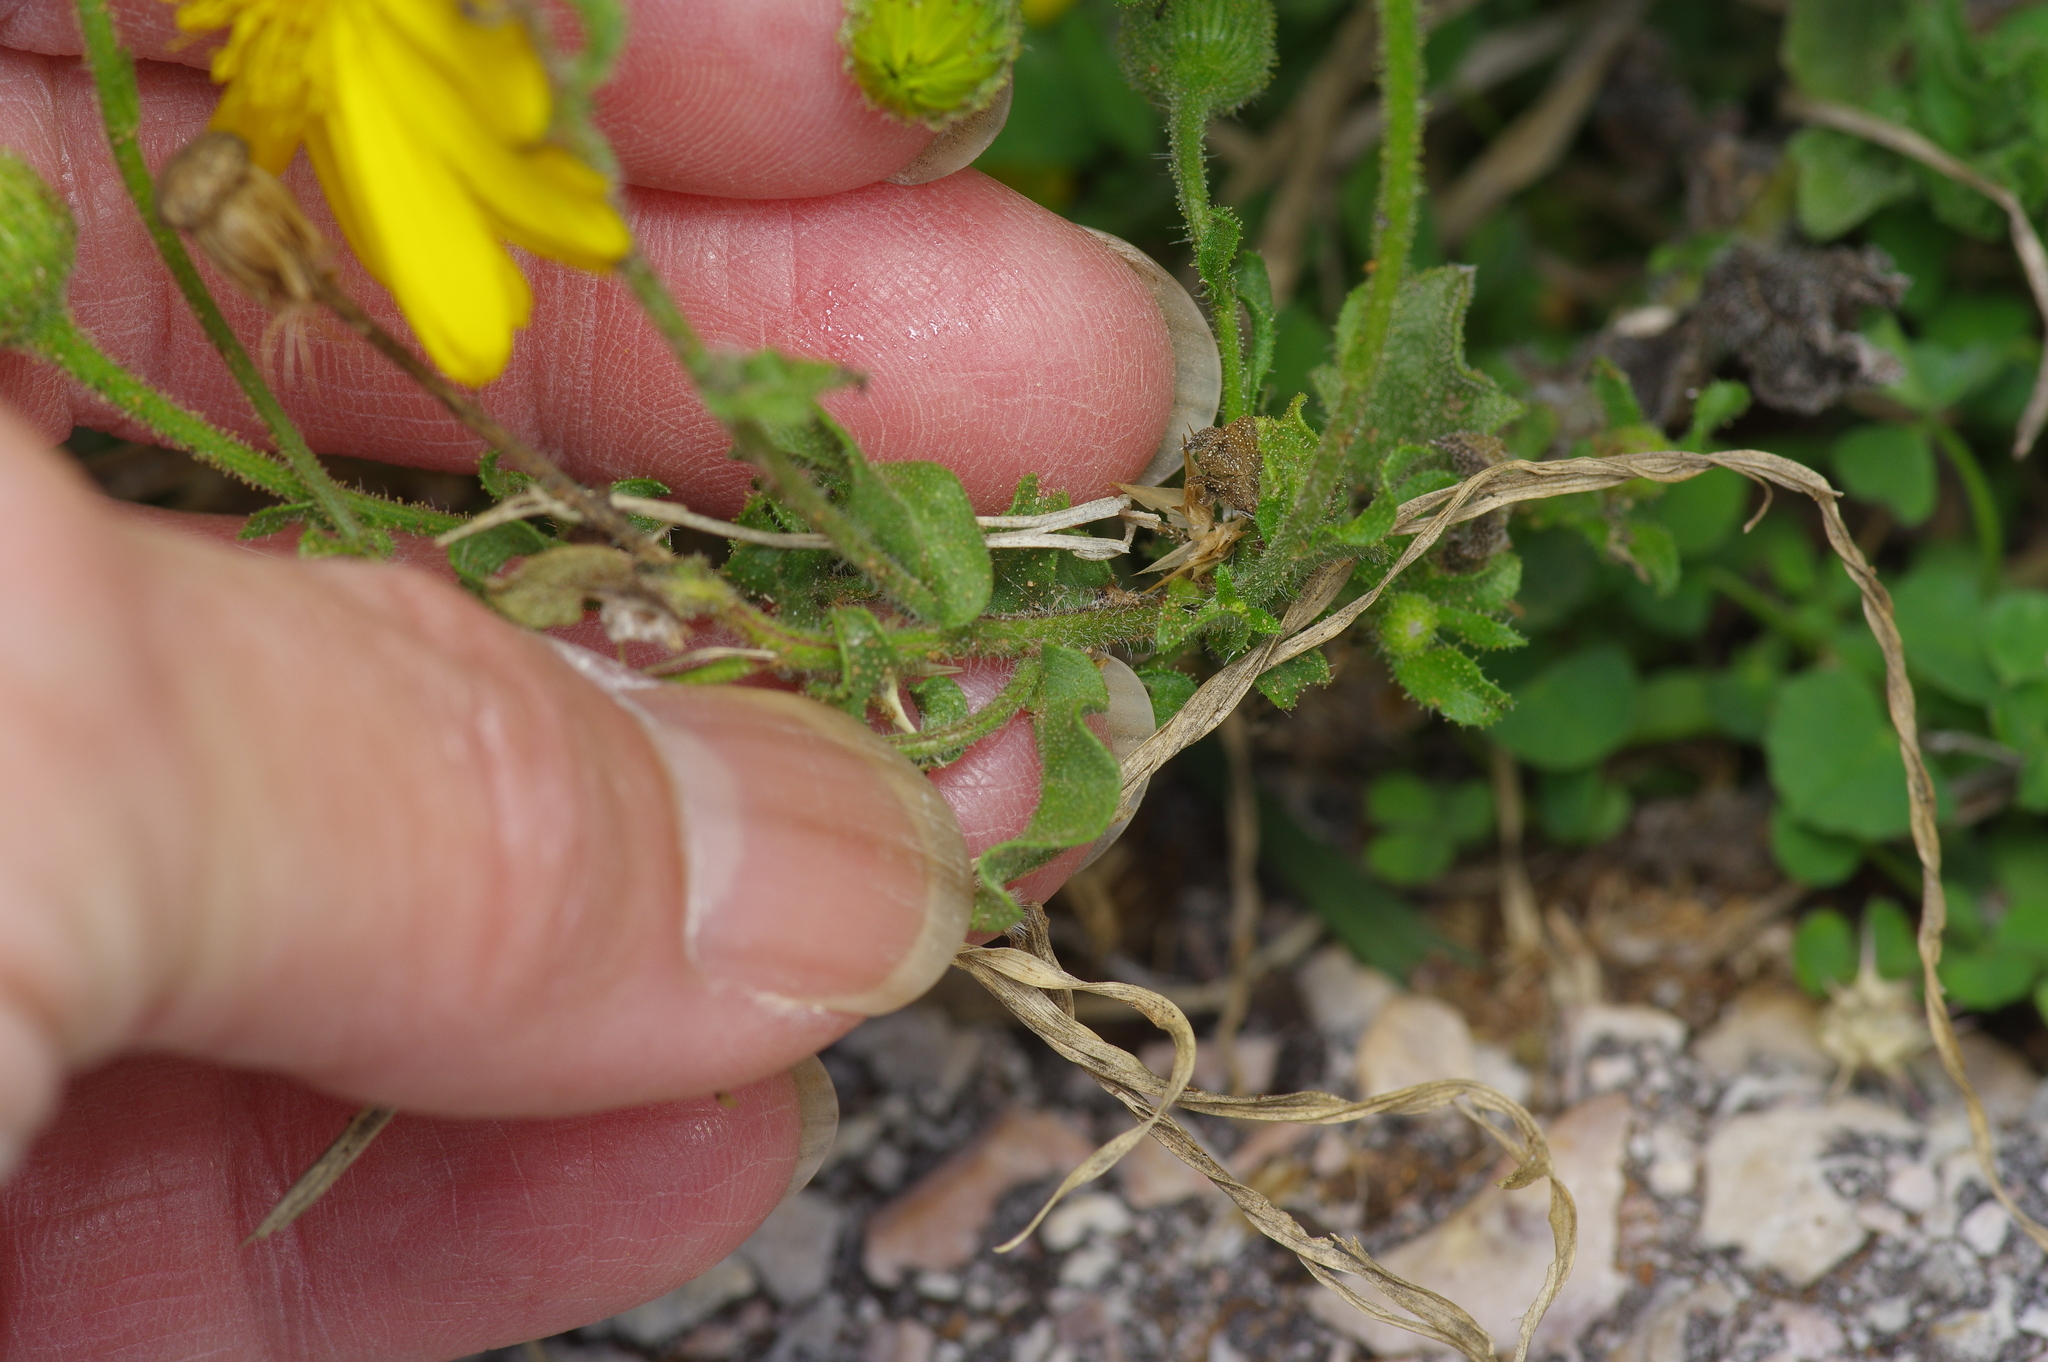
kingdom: Plantae
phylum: Tracheophyta
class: Magnoliopsida
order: Asterales
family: Asteraceae
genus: Heterotheca
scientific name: Heterotheca subaxillaris
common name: Camphorweed
